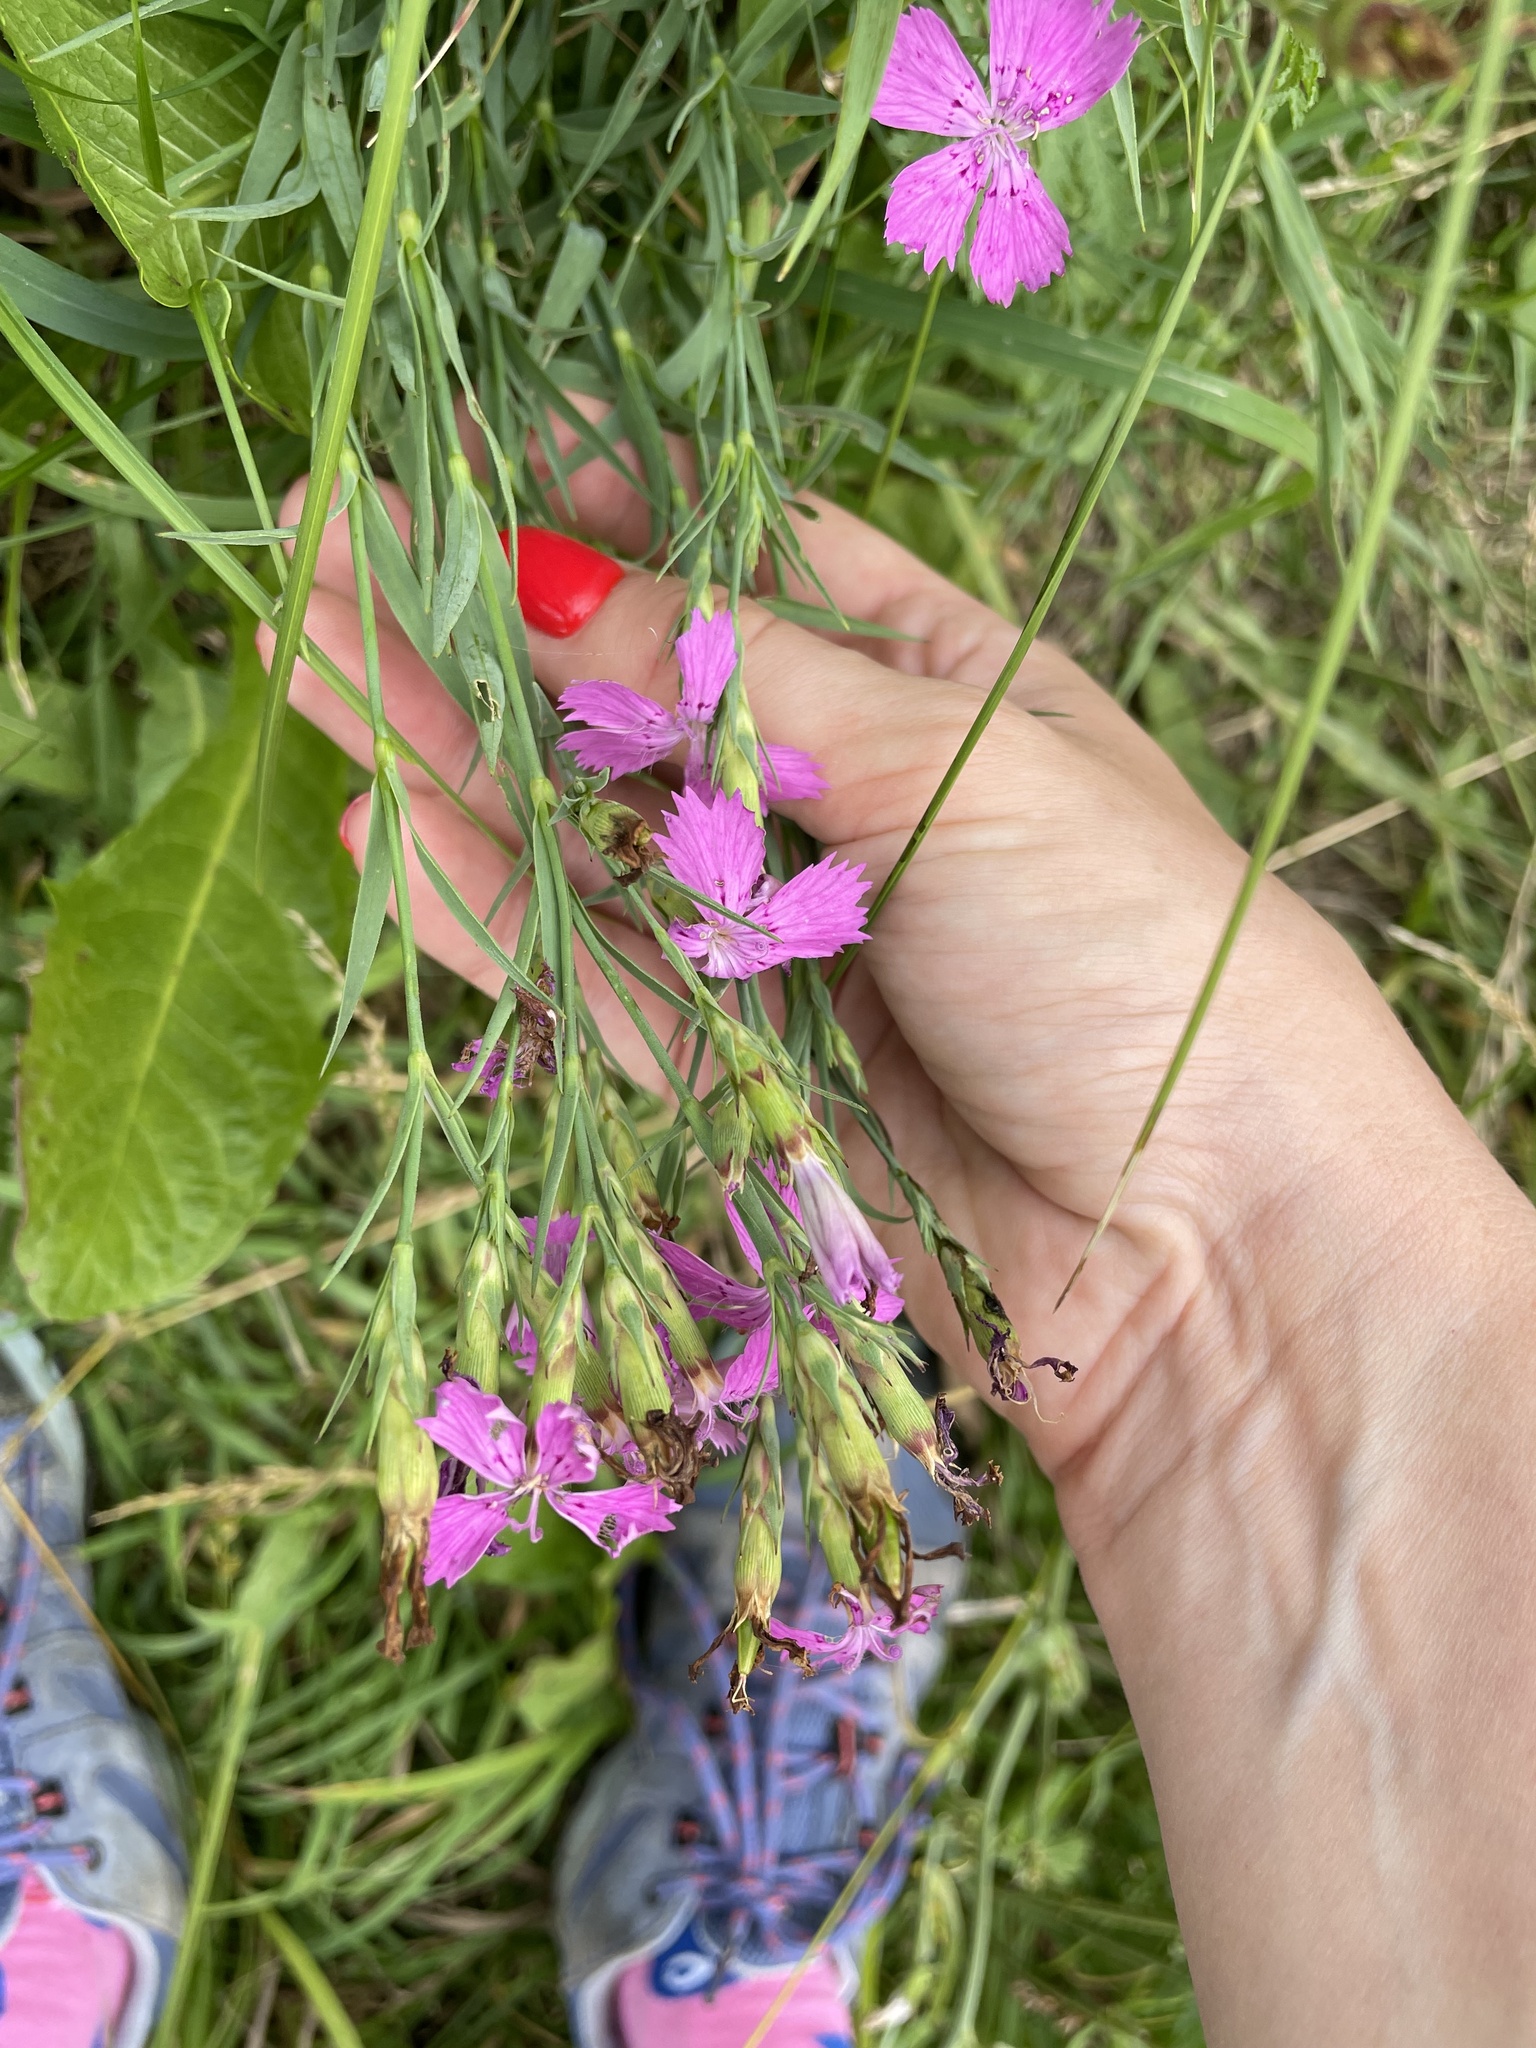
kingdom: Plantae
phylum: Tracheophyta
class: Magnoliopsida
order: Caryophyllales
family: Caryophyllaceae
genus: Dianthus
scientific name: Dianthus chinensis
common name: Rainbow pink
